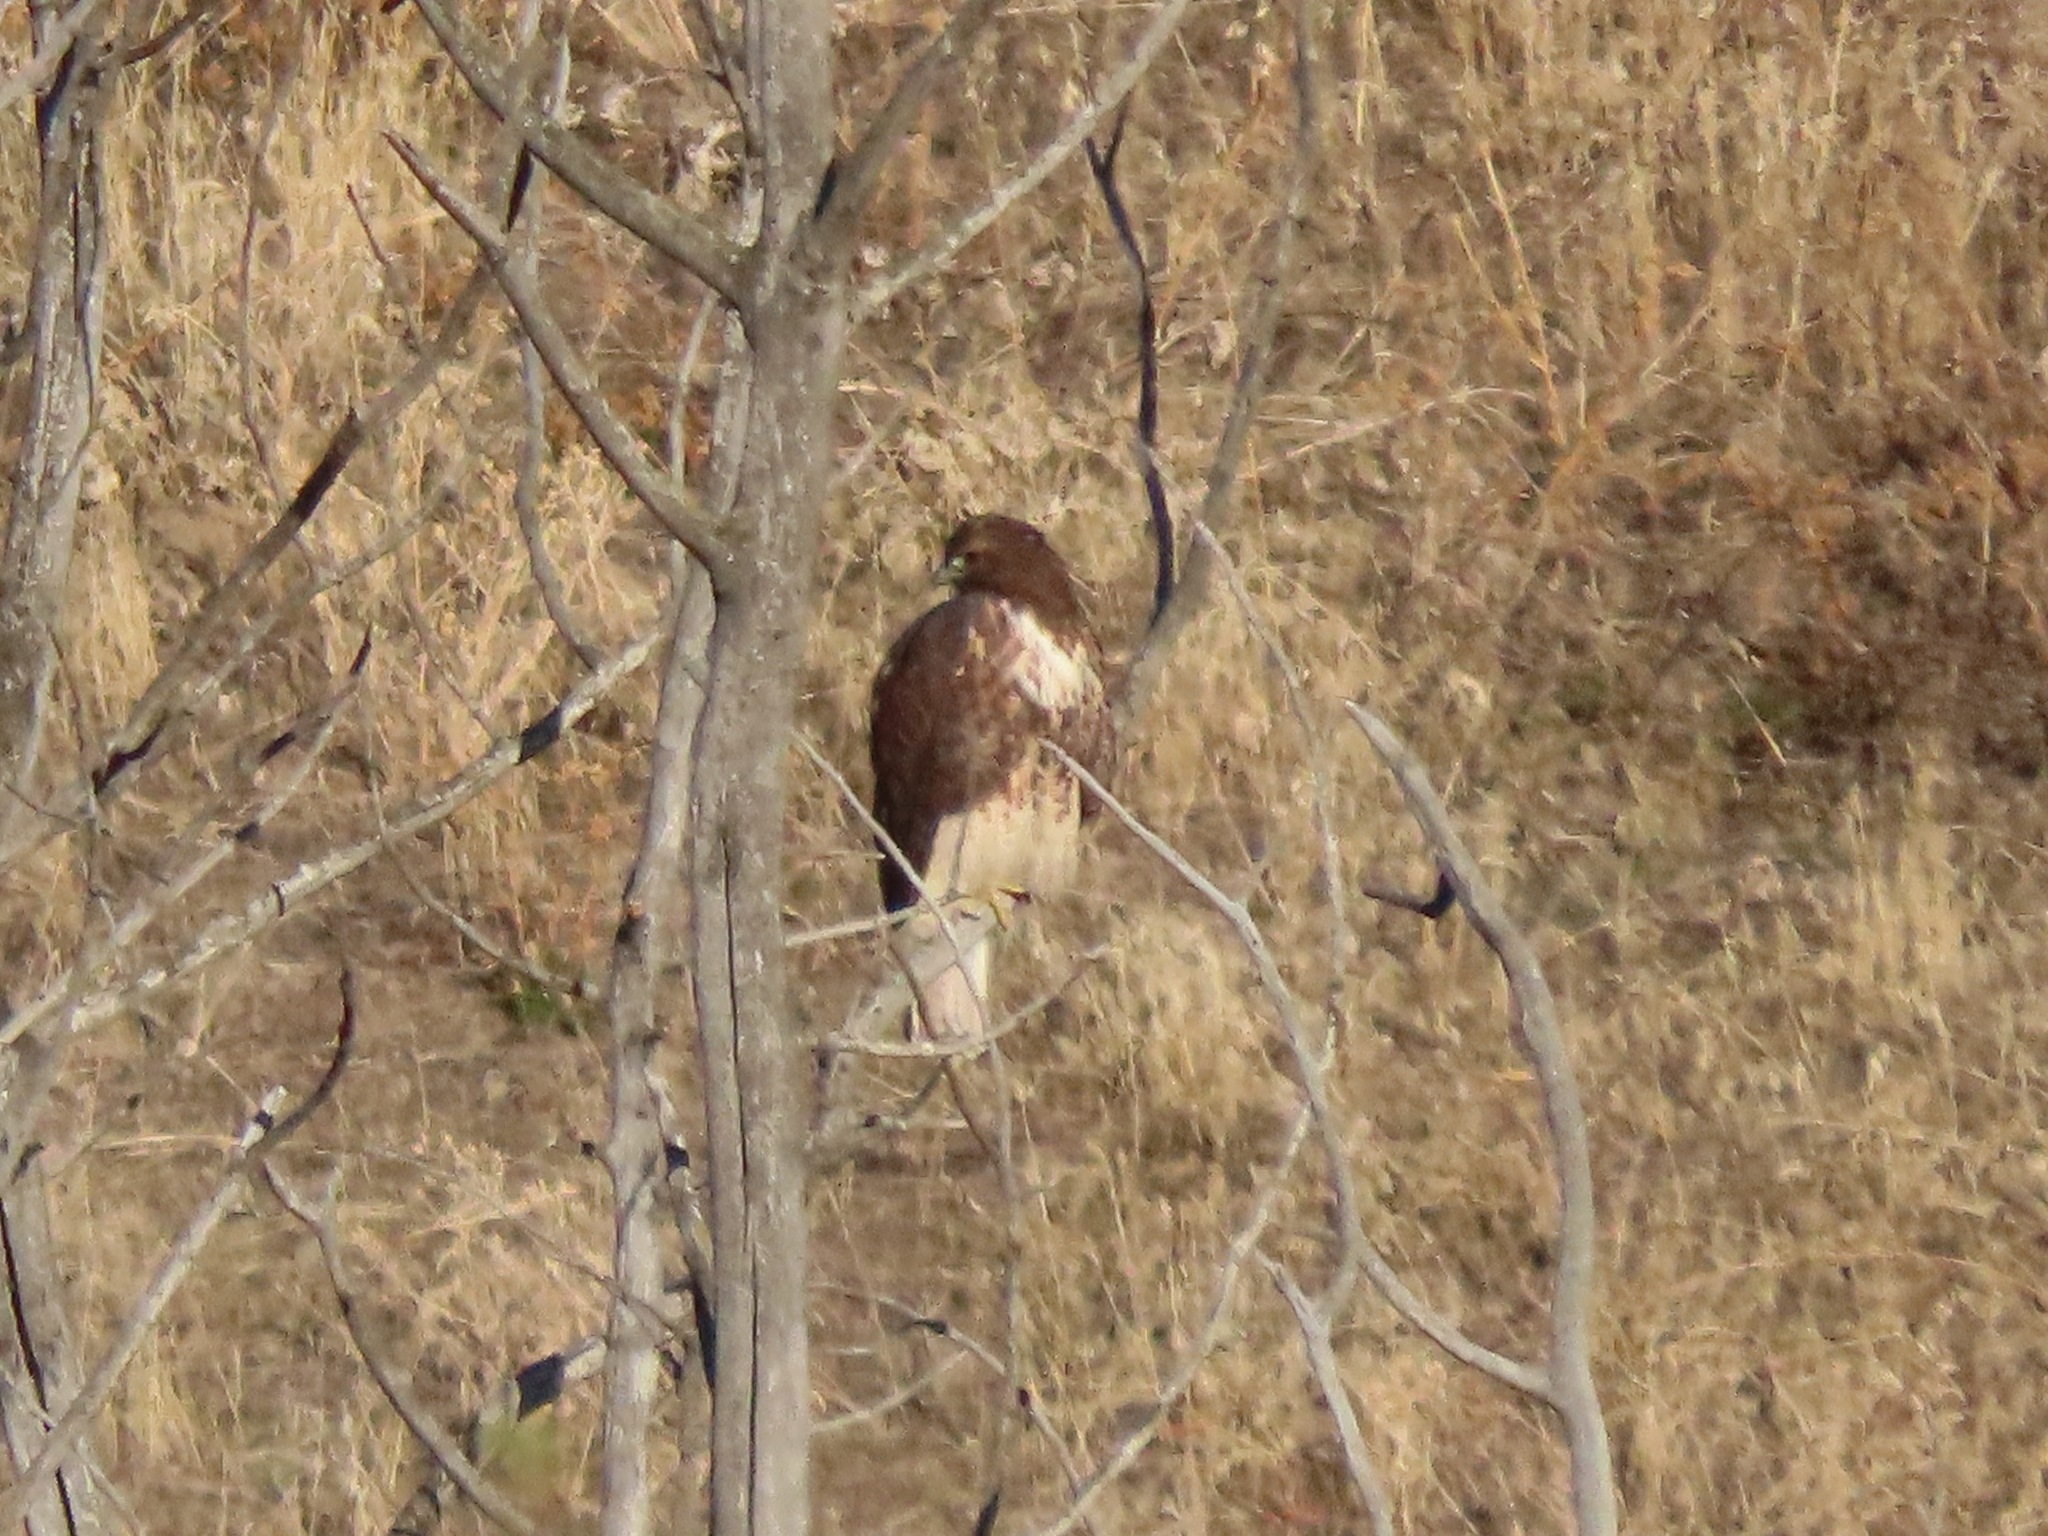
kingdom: Animalia
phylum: Chordata
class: Aves
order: Accipitriformes
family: Accipitridae
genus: Buteo
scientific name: Buteo jamaicensis
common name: Red-tailed hawk
